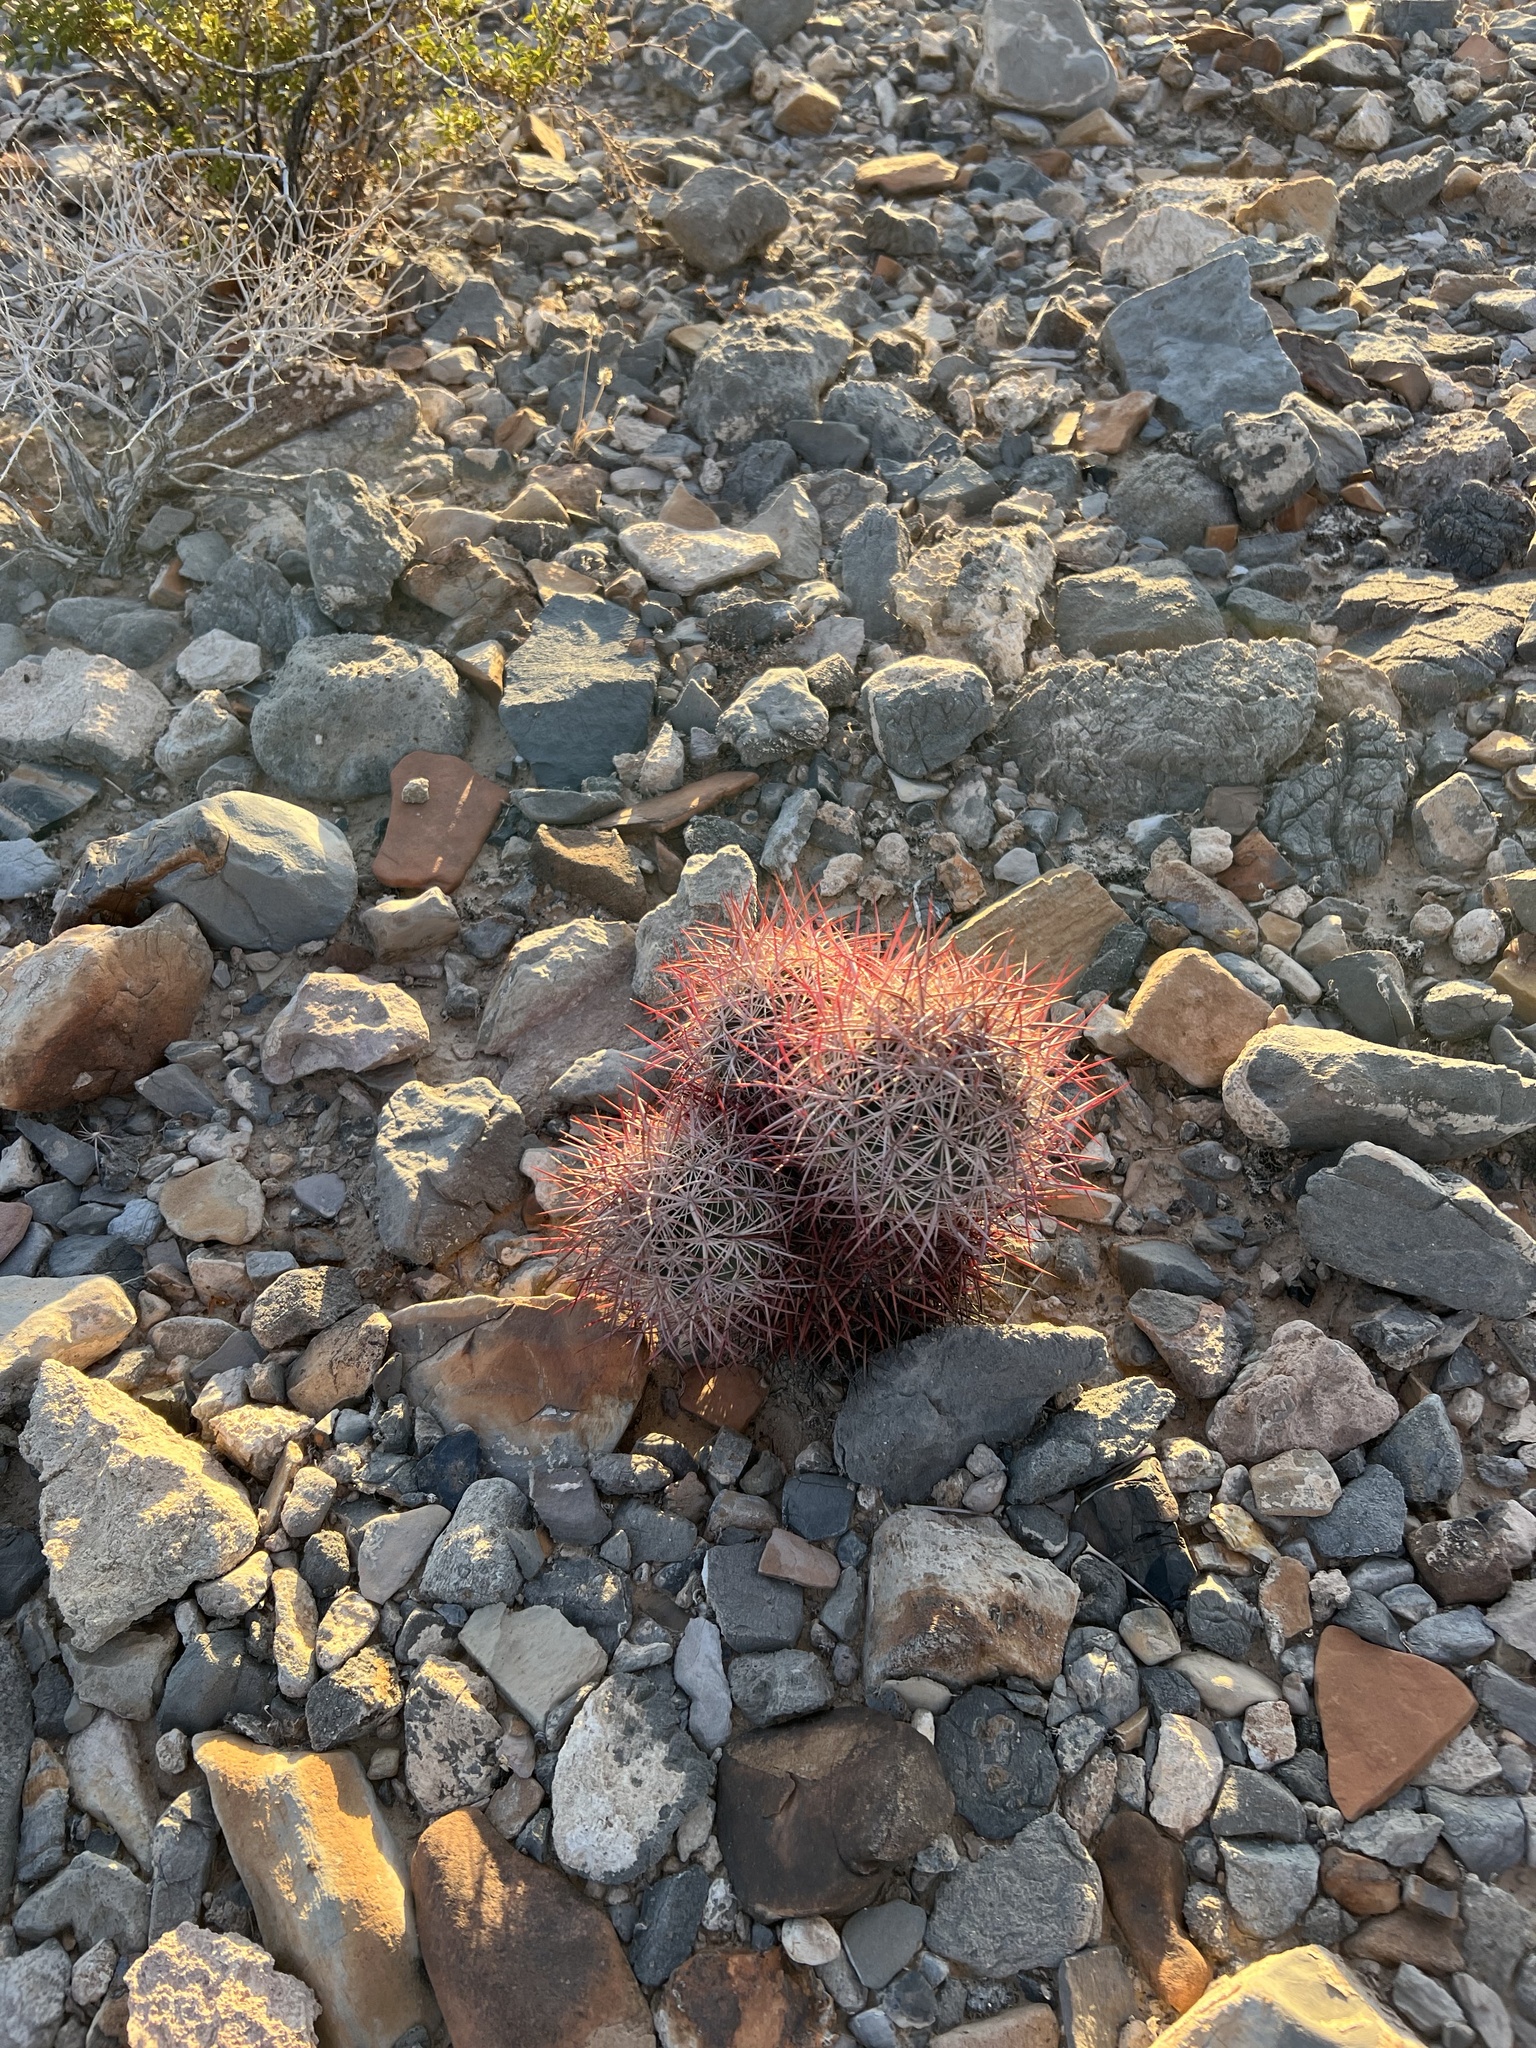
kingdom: Plantae
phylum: Tracheophyta
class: Magnoliopsida
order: Caryophyllales
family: Cactaceae
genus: Sclerocactus
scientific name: Sclerocactus johnsonii
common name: Eight-spine fishhook cactus
